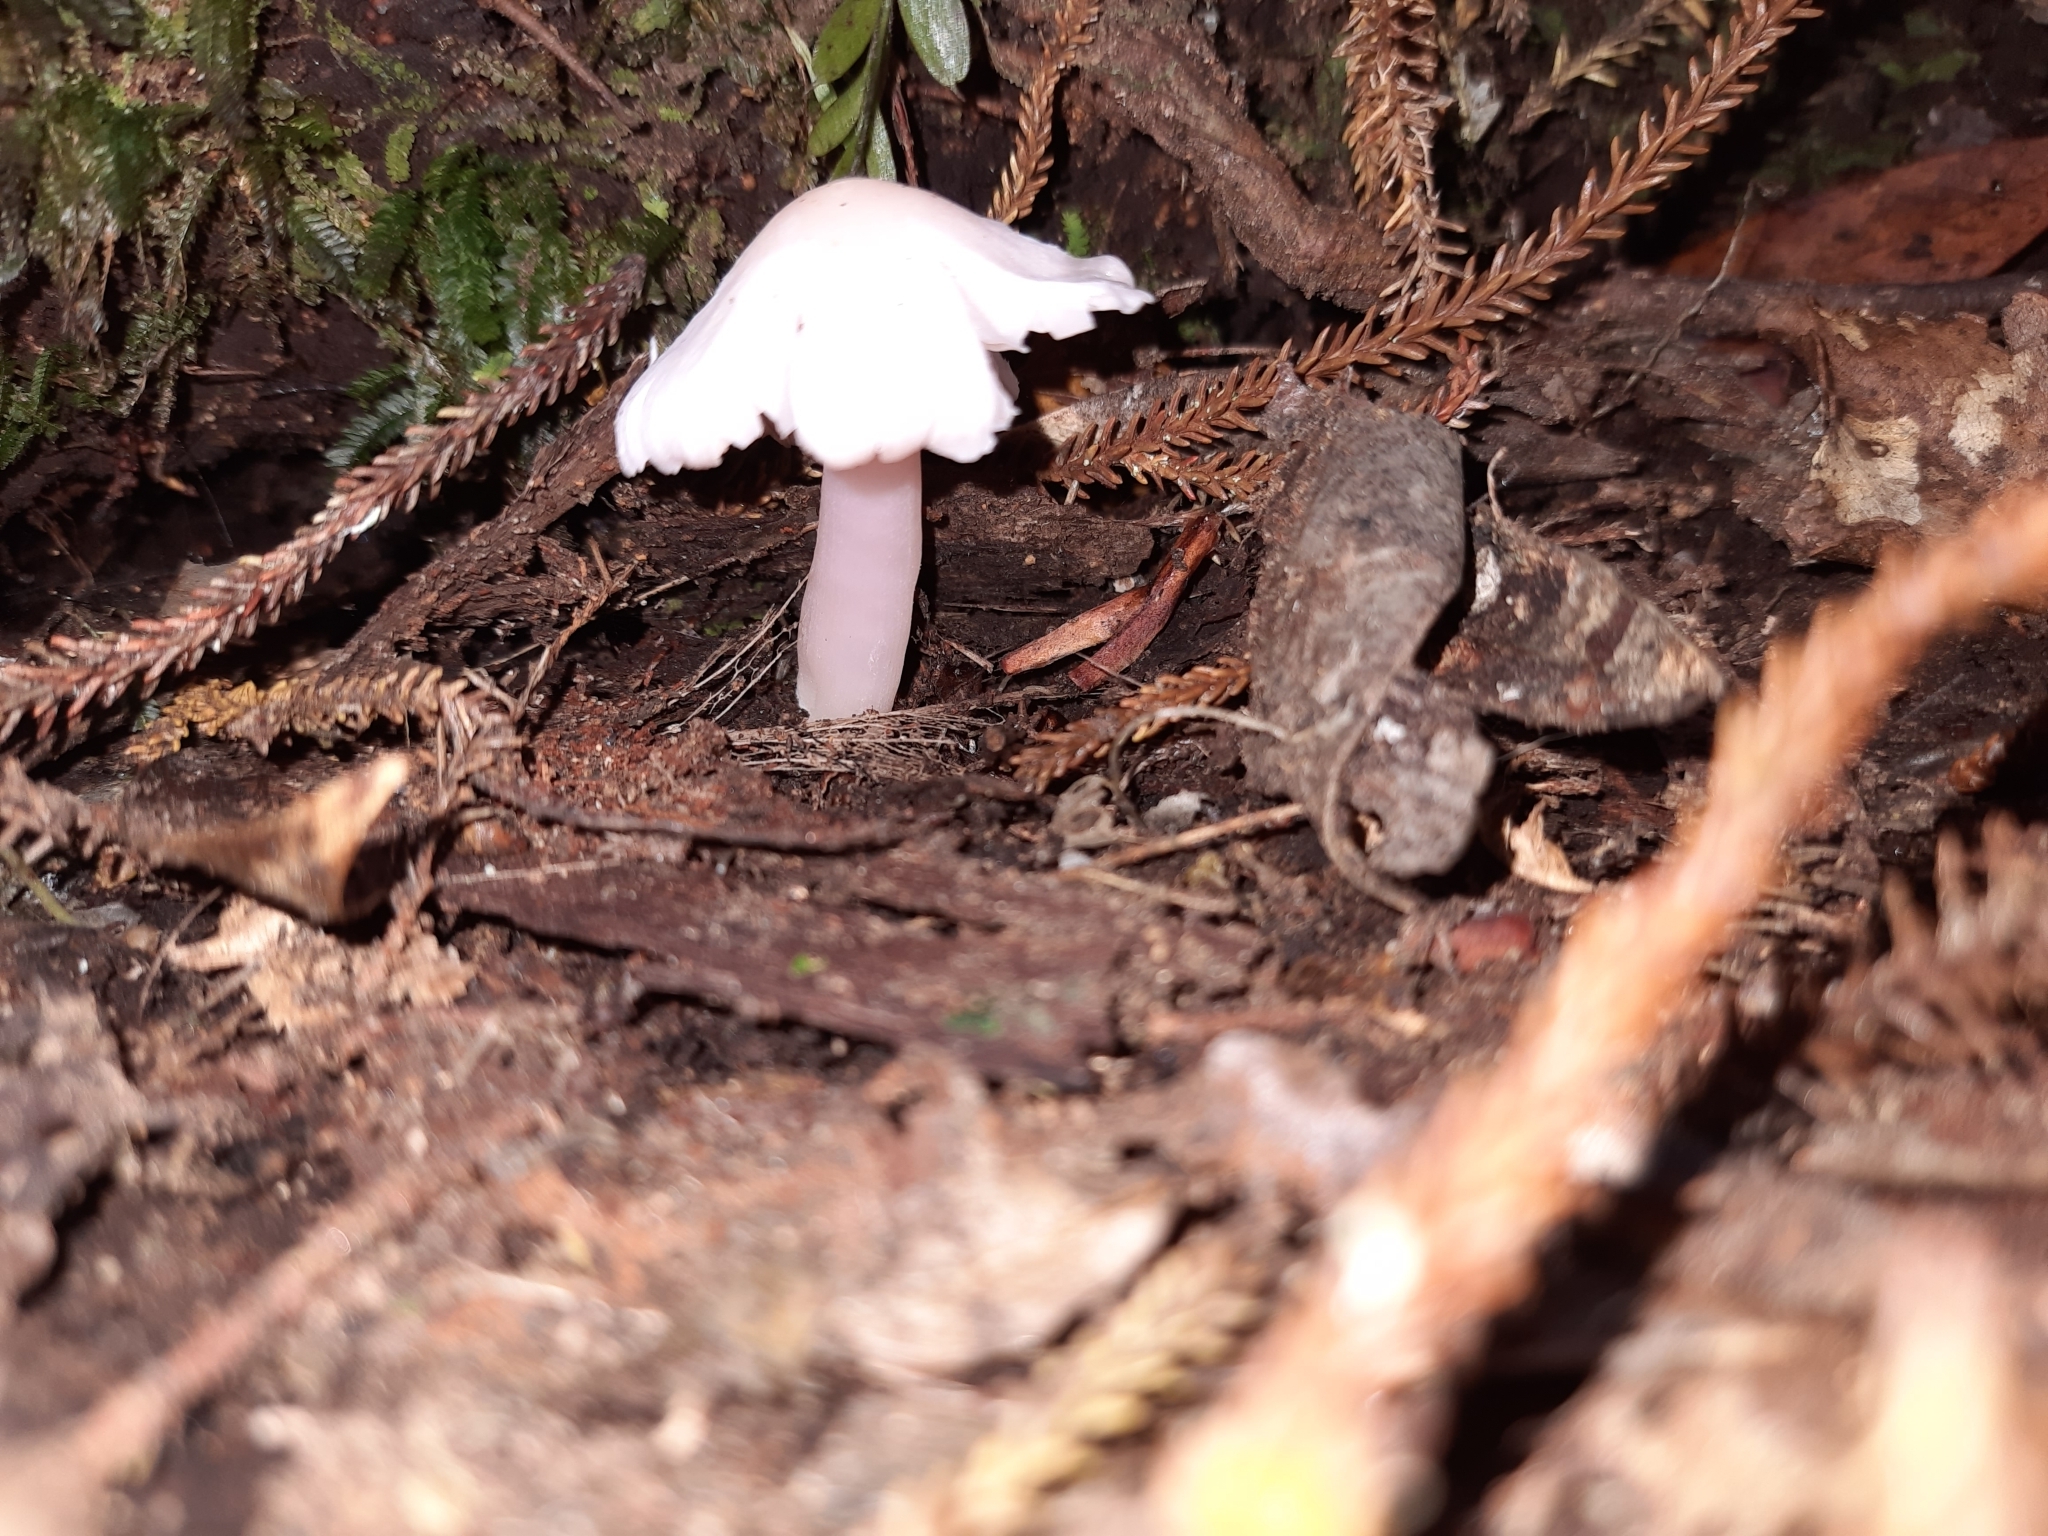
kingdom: Fungi
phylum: Basidiomycota
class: Agaricomycetes
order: Agaricales
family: Hygrophoraceae
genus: Humidicutis
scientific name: Humidicutis
